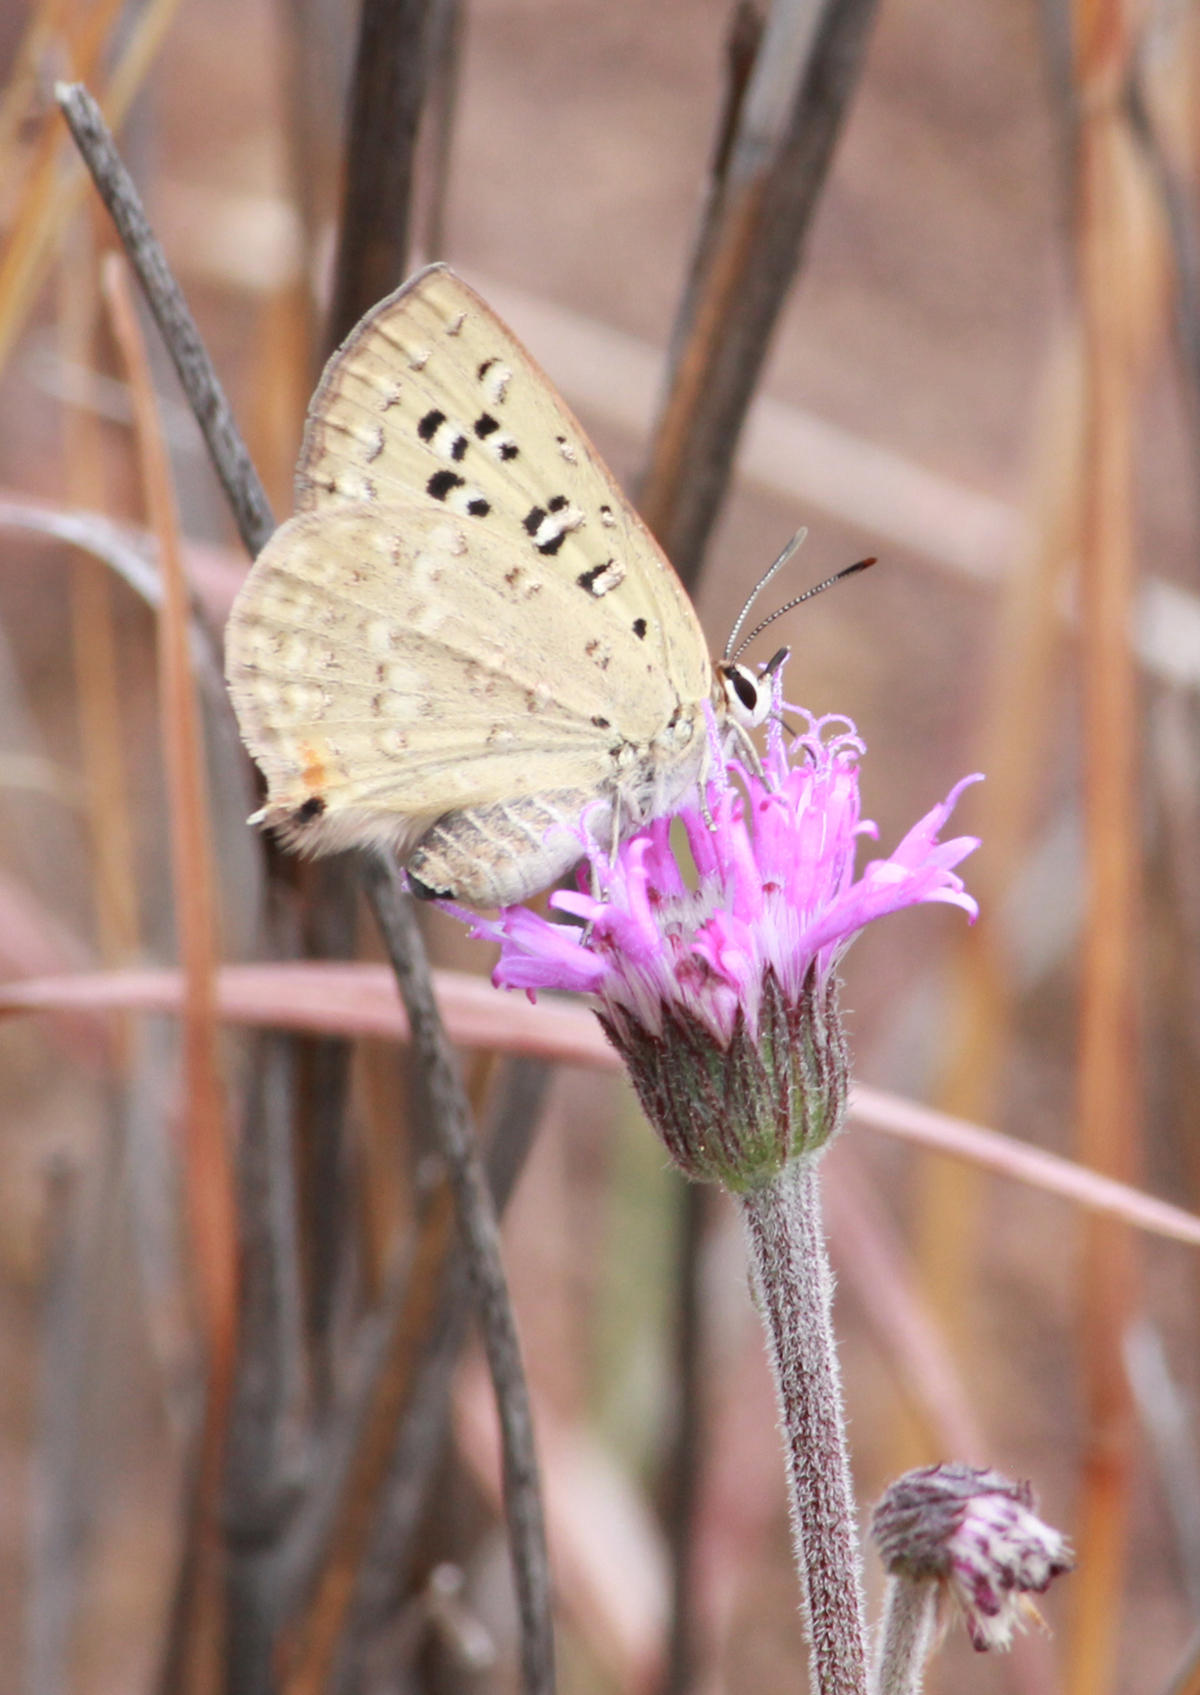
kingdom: Animalia
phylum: Arthropoda
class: Insecta
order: Lepidoptera
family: Lycaenidae
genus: Crudaria
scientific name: Crudaria leroma
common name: Silver spotted grey
